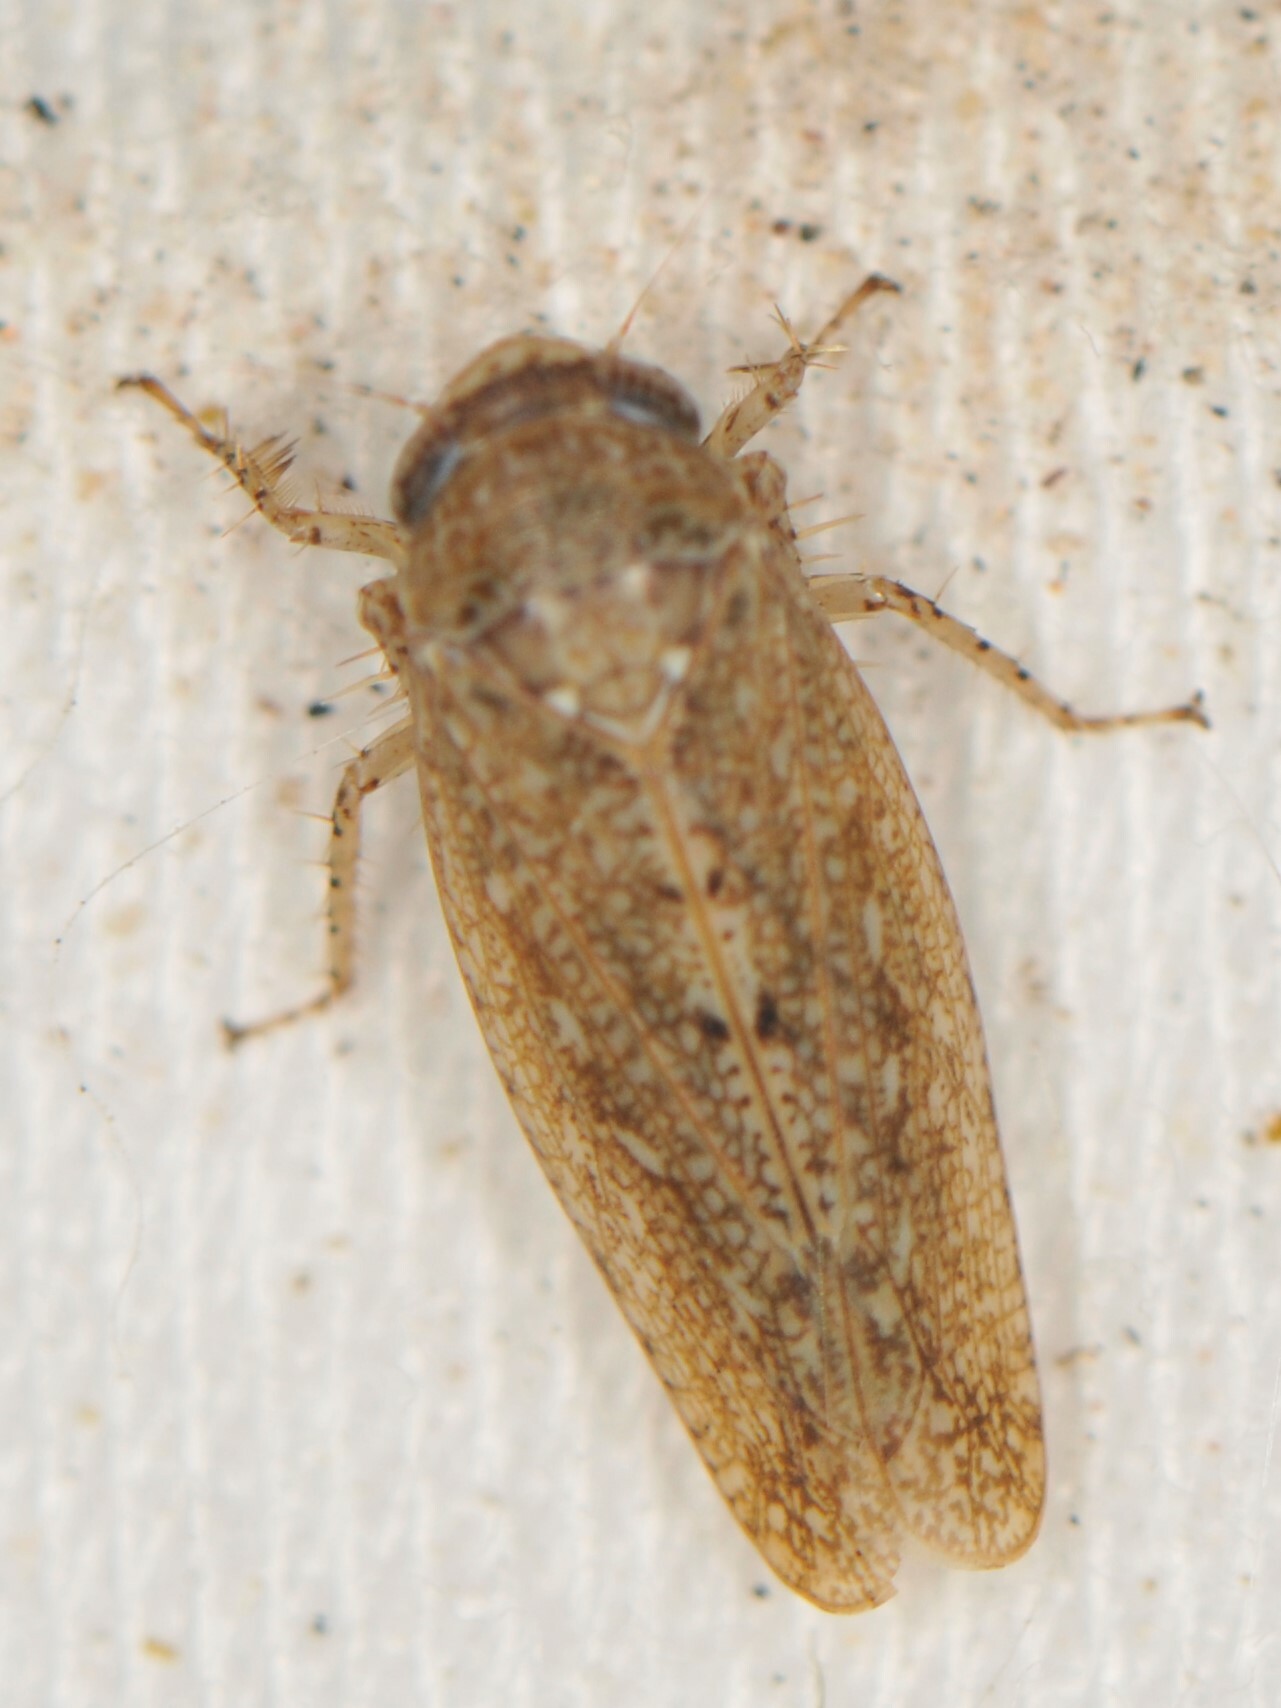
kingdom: Animalia
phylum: Arthropoda
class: Insecta
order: Hemiptera
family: Cicadellidae
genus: Texananus
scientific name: Texananus
